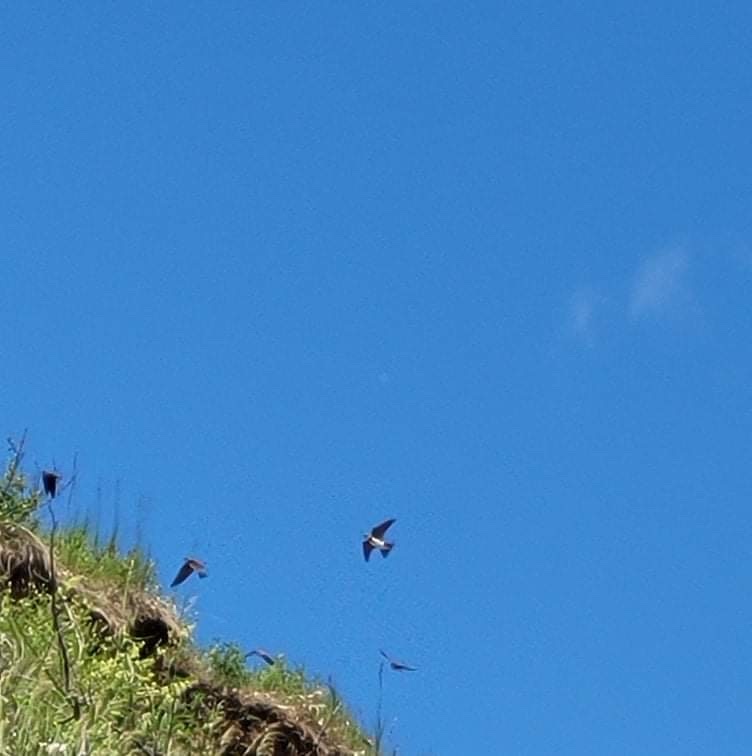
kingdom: Animalia
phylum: Chordata
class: Aves
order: Passeriformes
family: Hirundinidae
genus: Riparia
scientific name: Riparia riparia
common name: Sand martin
